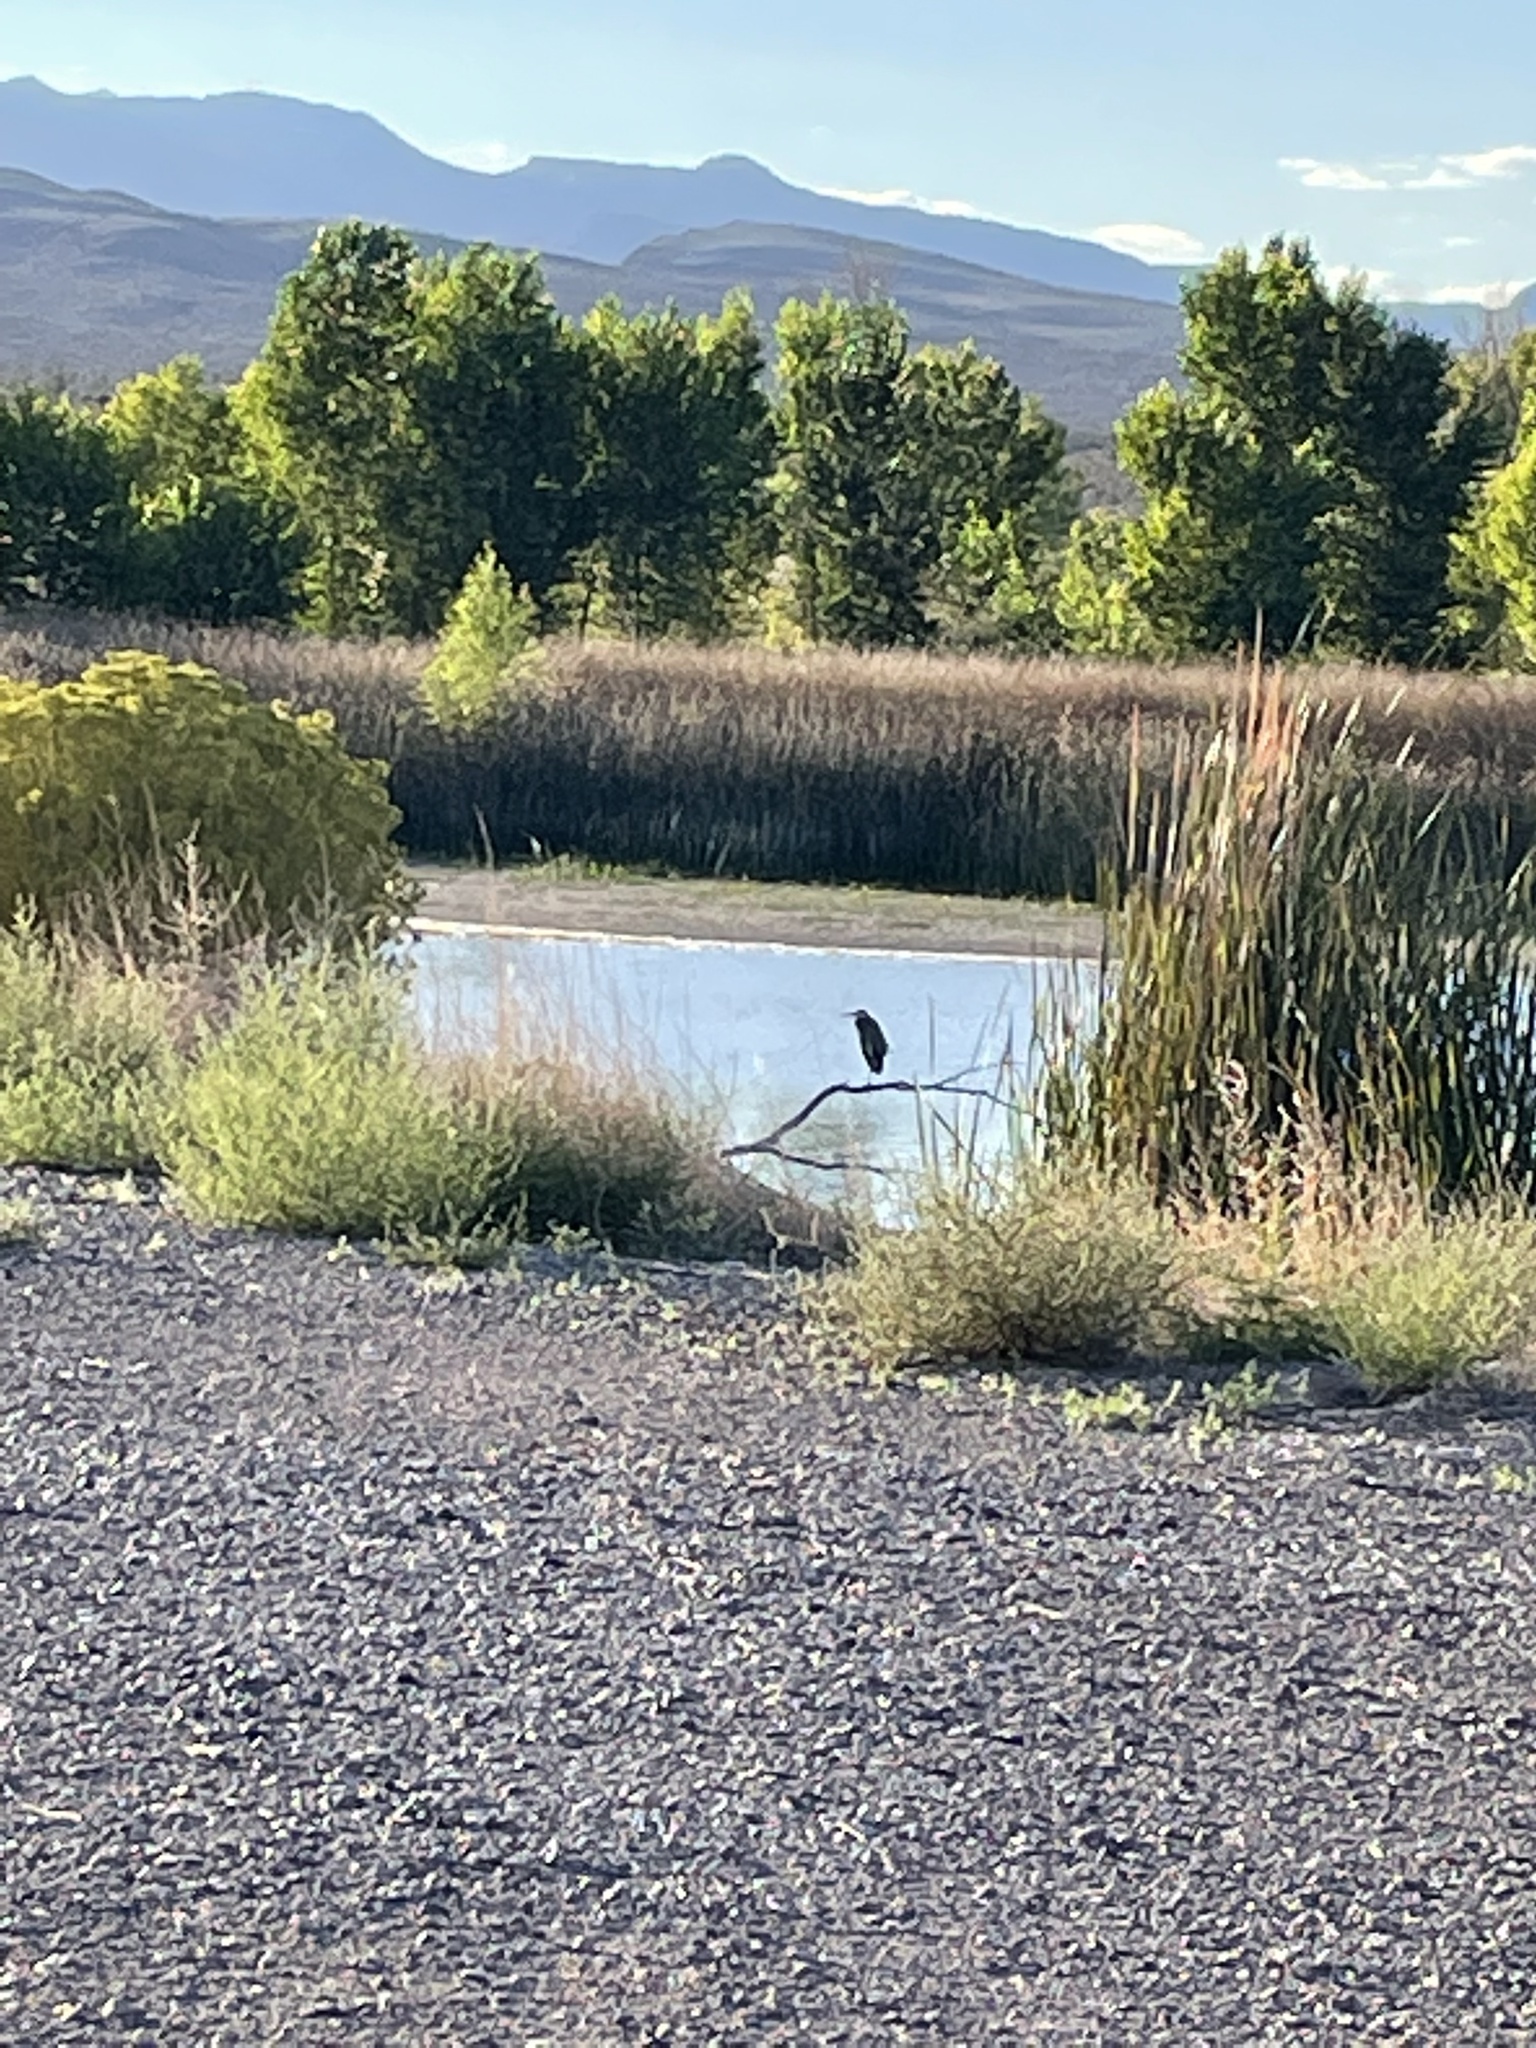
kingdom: Animalia
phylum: Chordata
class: Aves
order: Pelecaniformes
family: Ardeidae
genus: Ardea
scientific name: Ardea herodias
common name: Great blue heron
